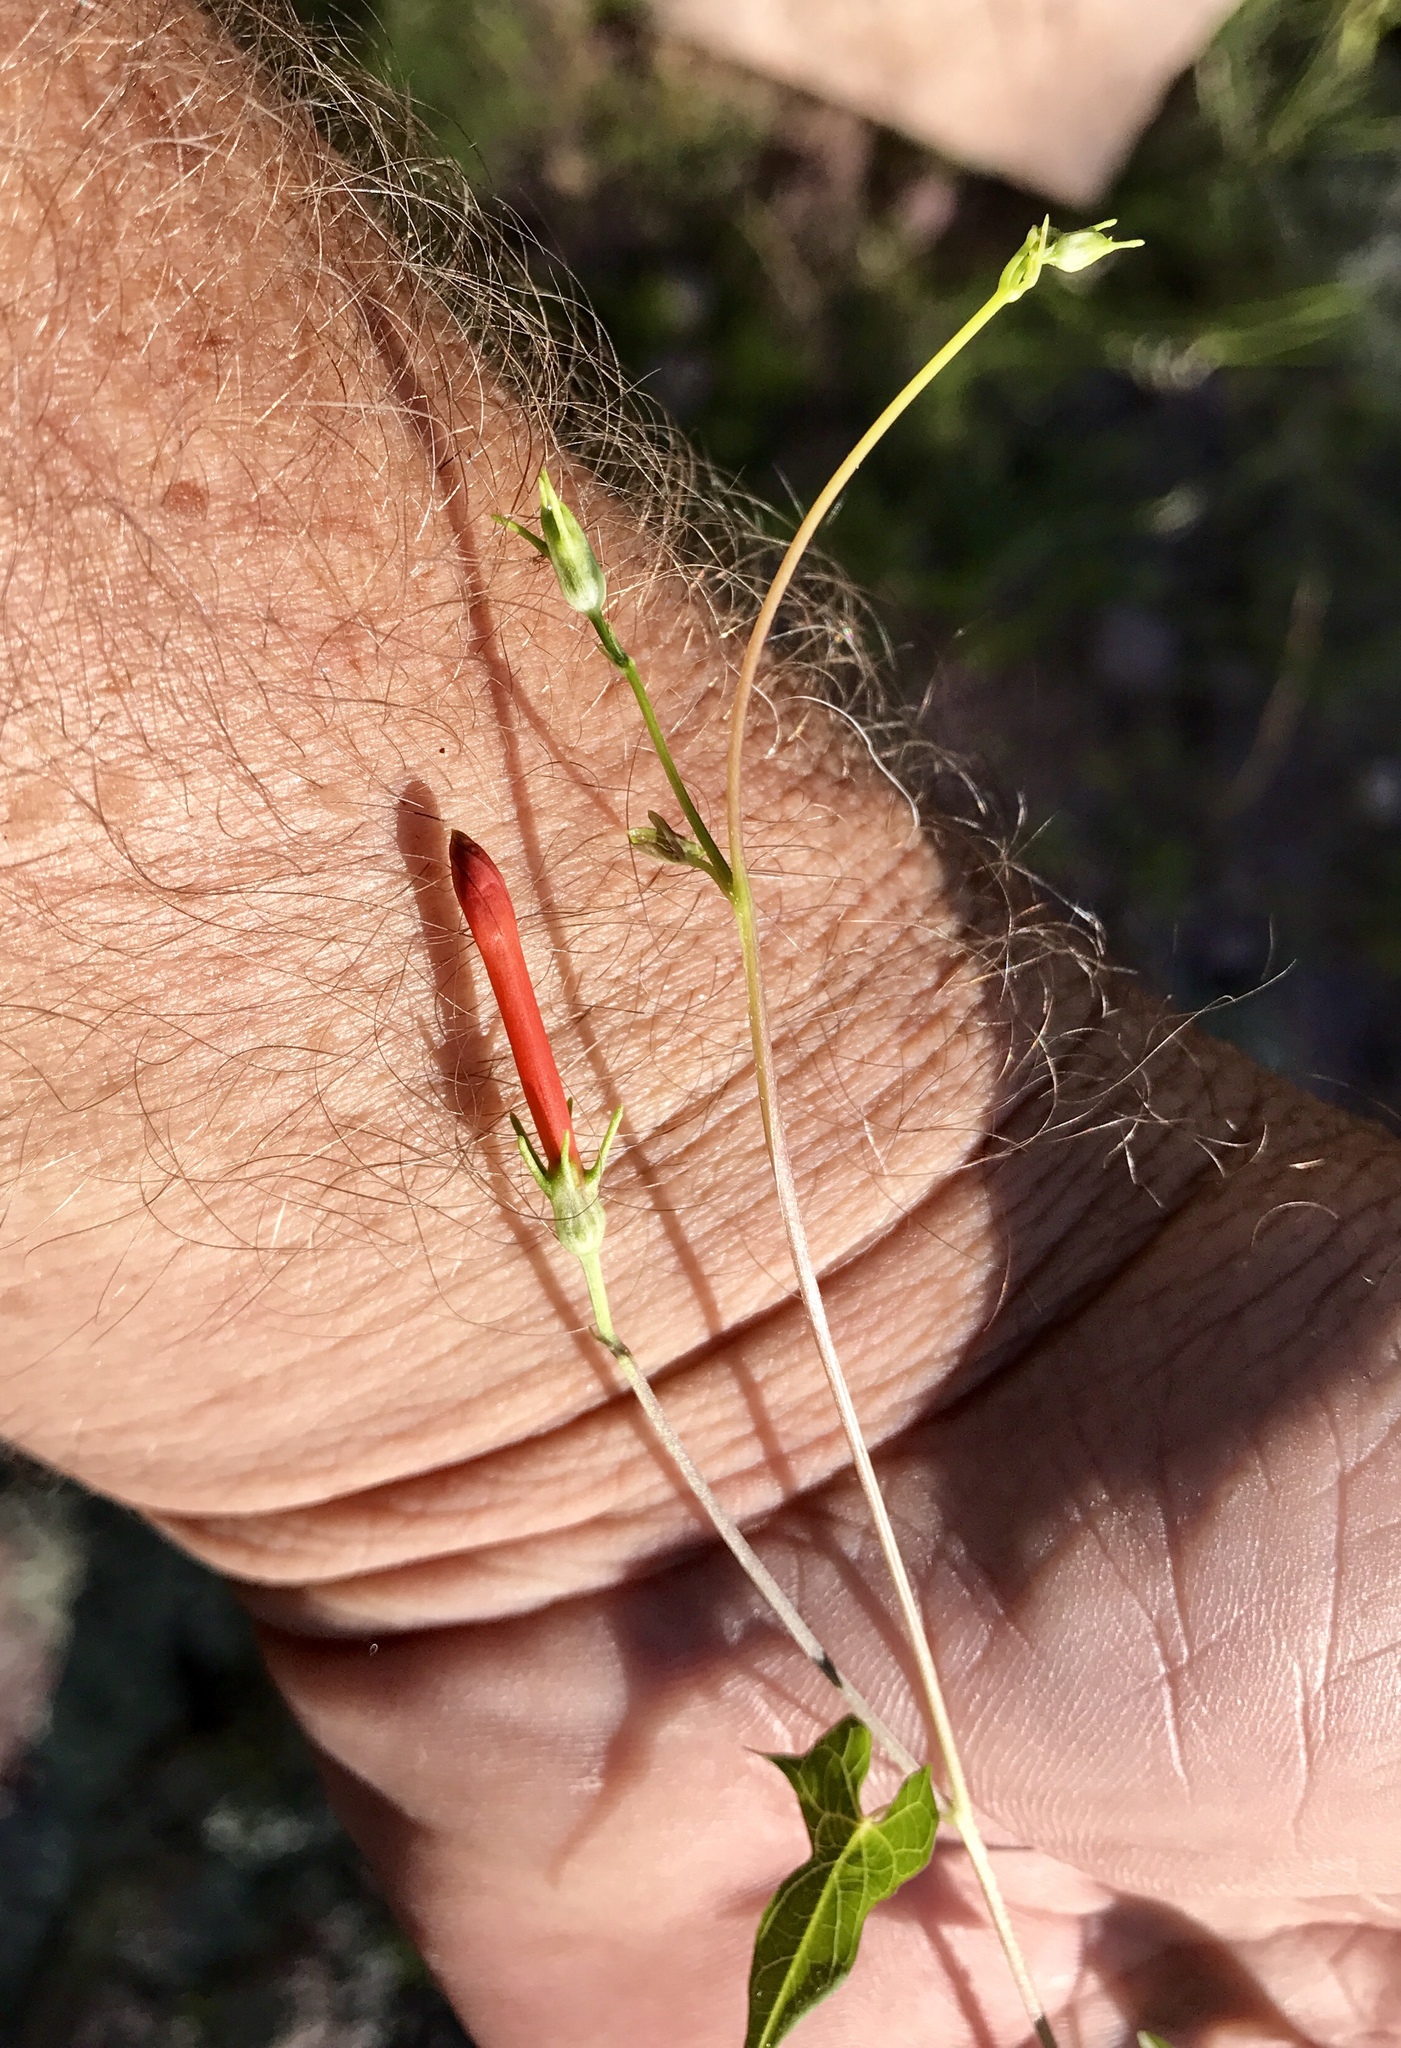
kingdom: Plantae
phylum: Tracheophyta
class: Magnoliopsida
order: Solanales
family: Convolvulaceae
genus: Ipomoea
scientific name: Ipomoea cristulata
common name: Trans-pecos morning-glory
